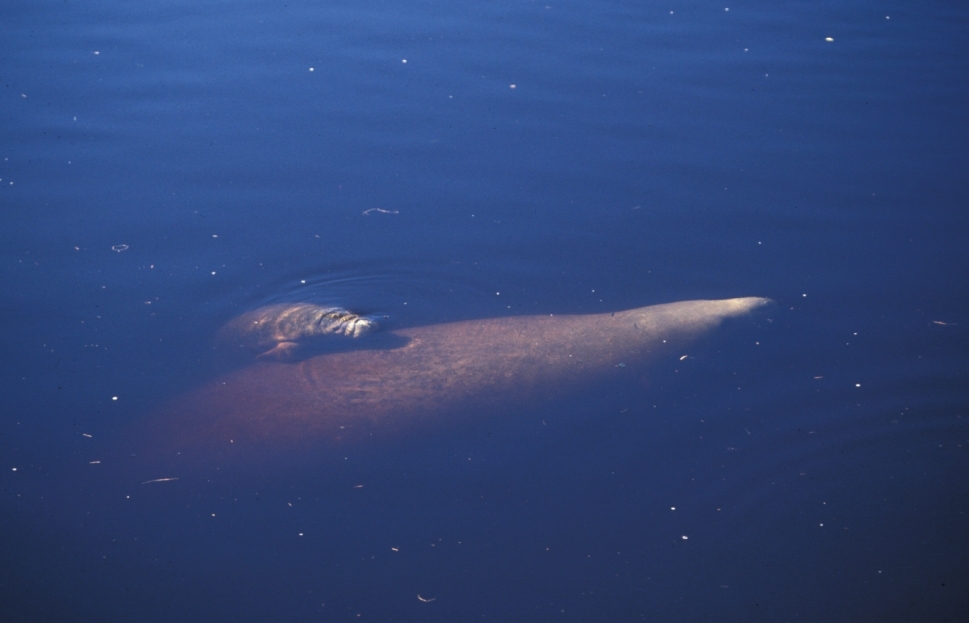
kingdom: Animalia
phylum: Chordata
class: Mammalia
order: Sirenia
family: Trichechidae
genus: Trichechus
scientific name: Trichechus manatus
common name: West indian manatee
